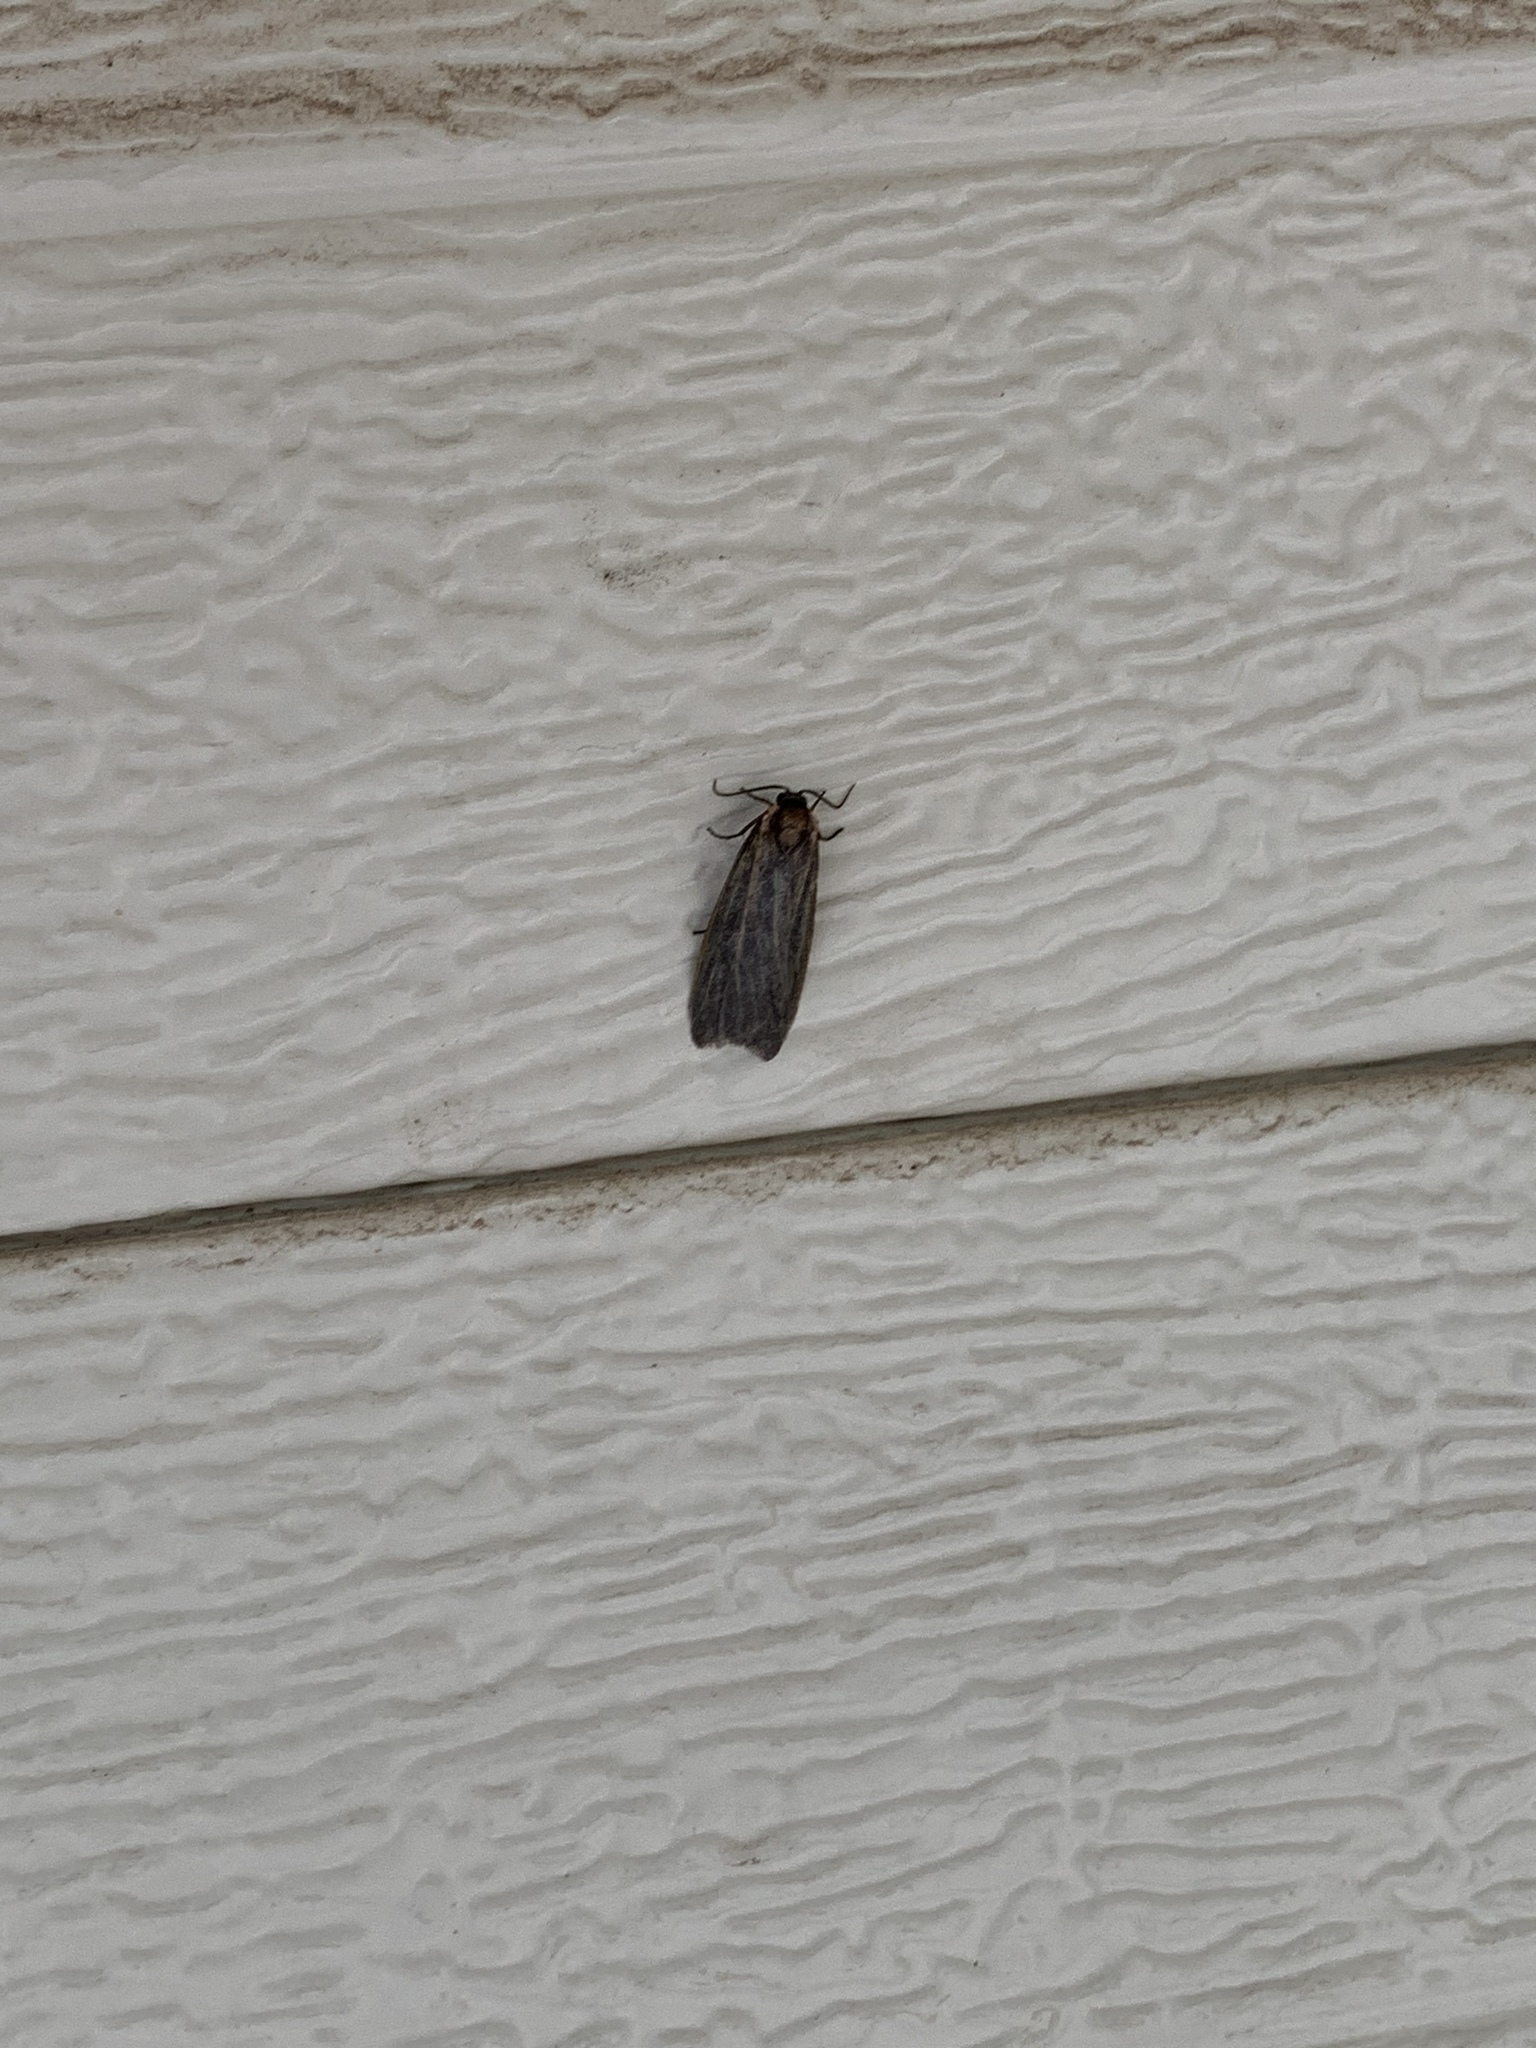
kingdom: Animalia
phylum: Arthropoda
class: Insecta
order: Lepidoptera
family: Erebidae
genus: Hypoprepia
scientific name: Hypoprepia inculta
